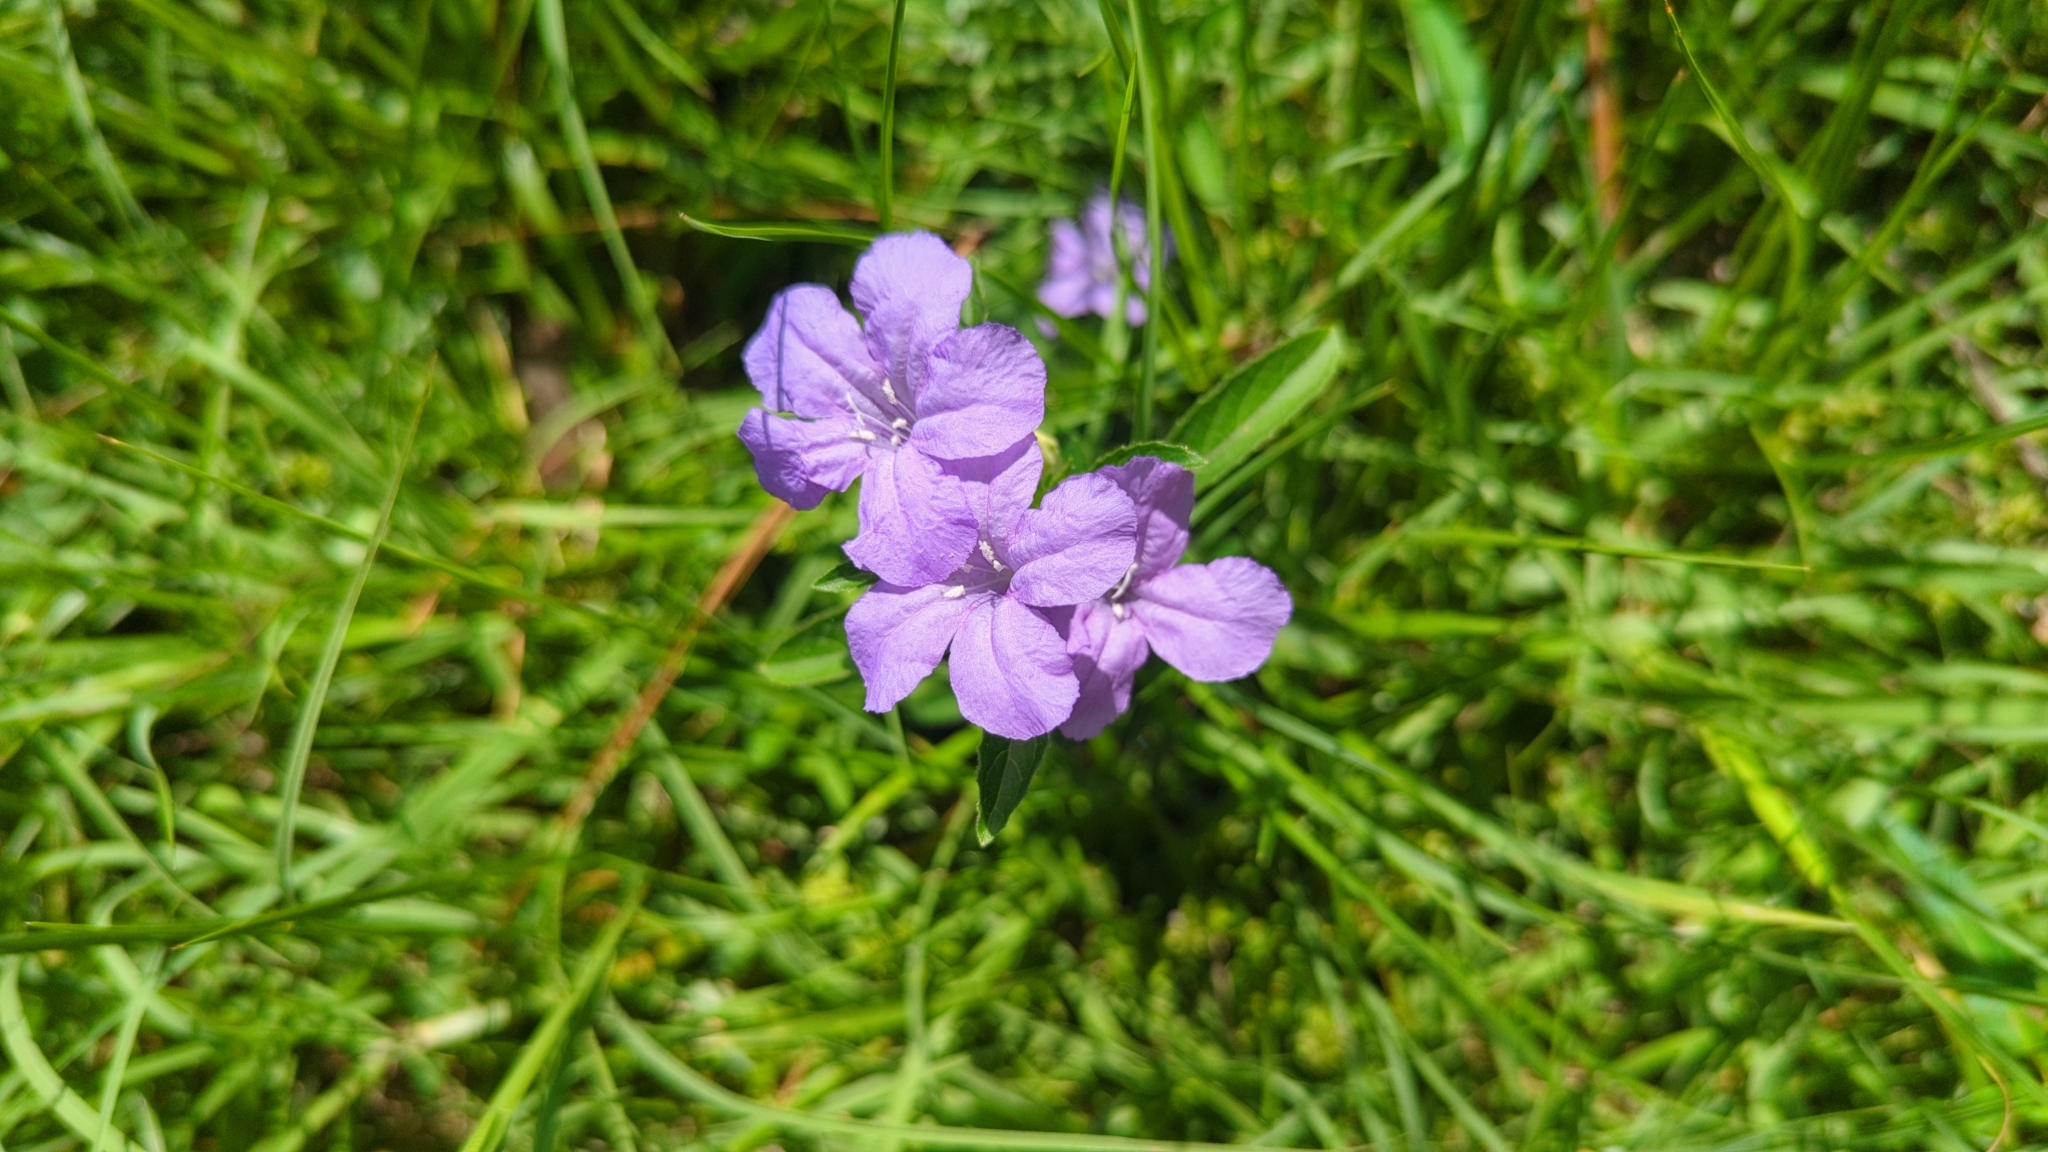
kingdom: Plantae
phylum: Tracheophyta
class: Magnoliopsida
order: Lamiales
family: Acanthaceae
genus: Ruellia
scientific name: Ruellia caroliniensis
